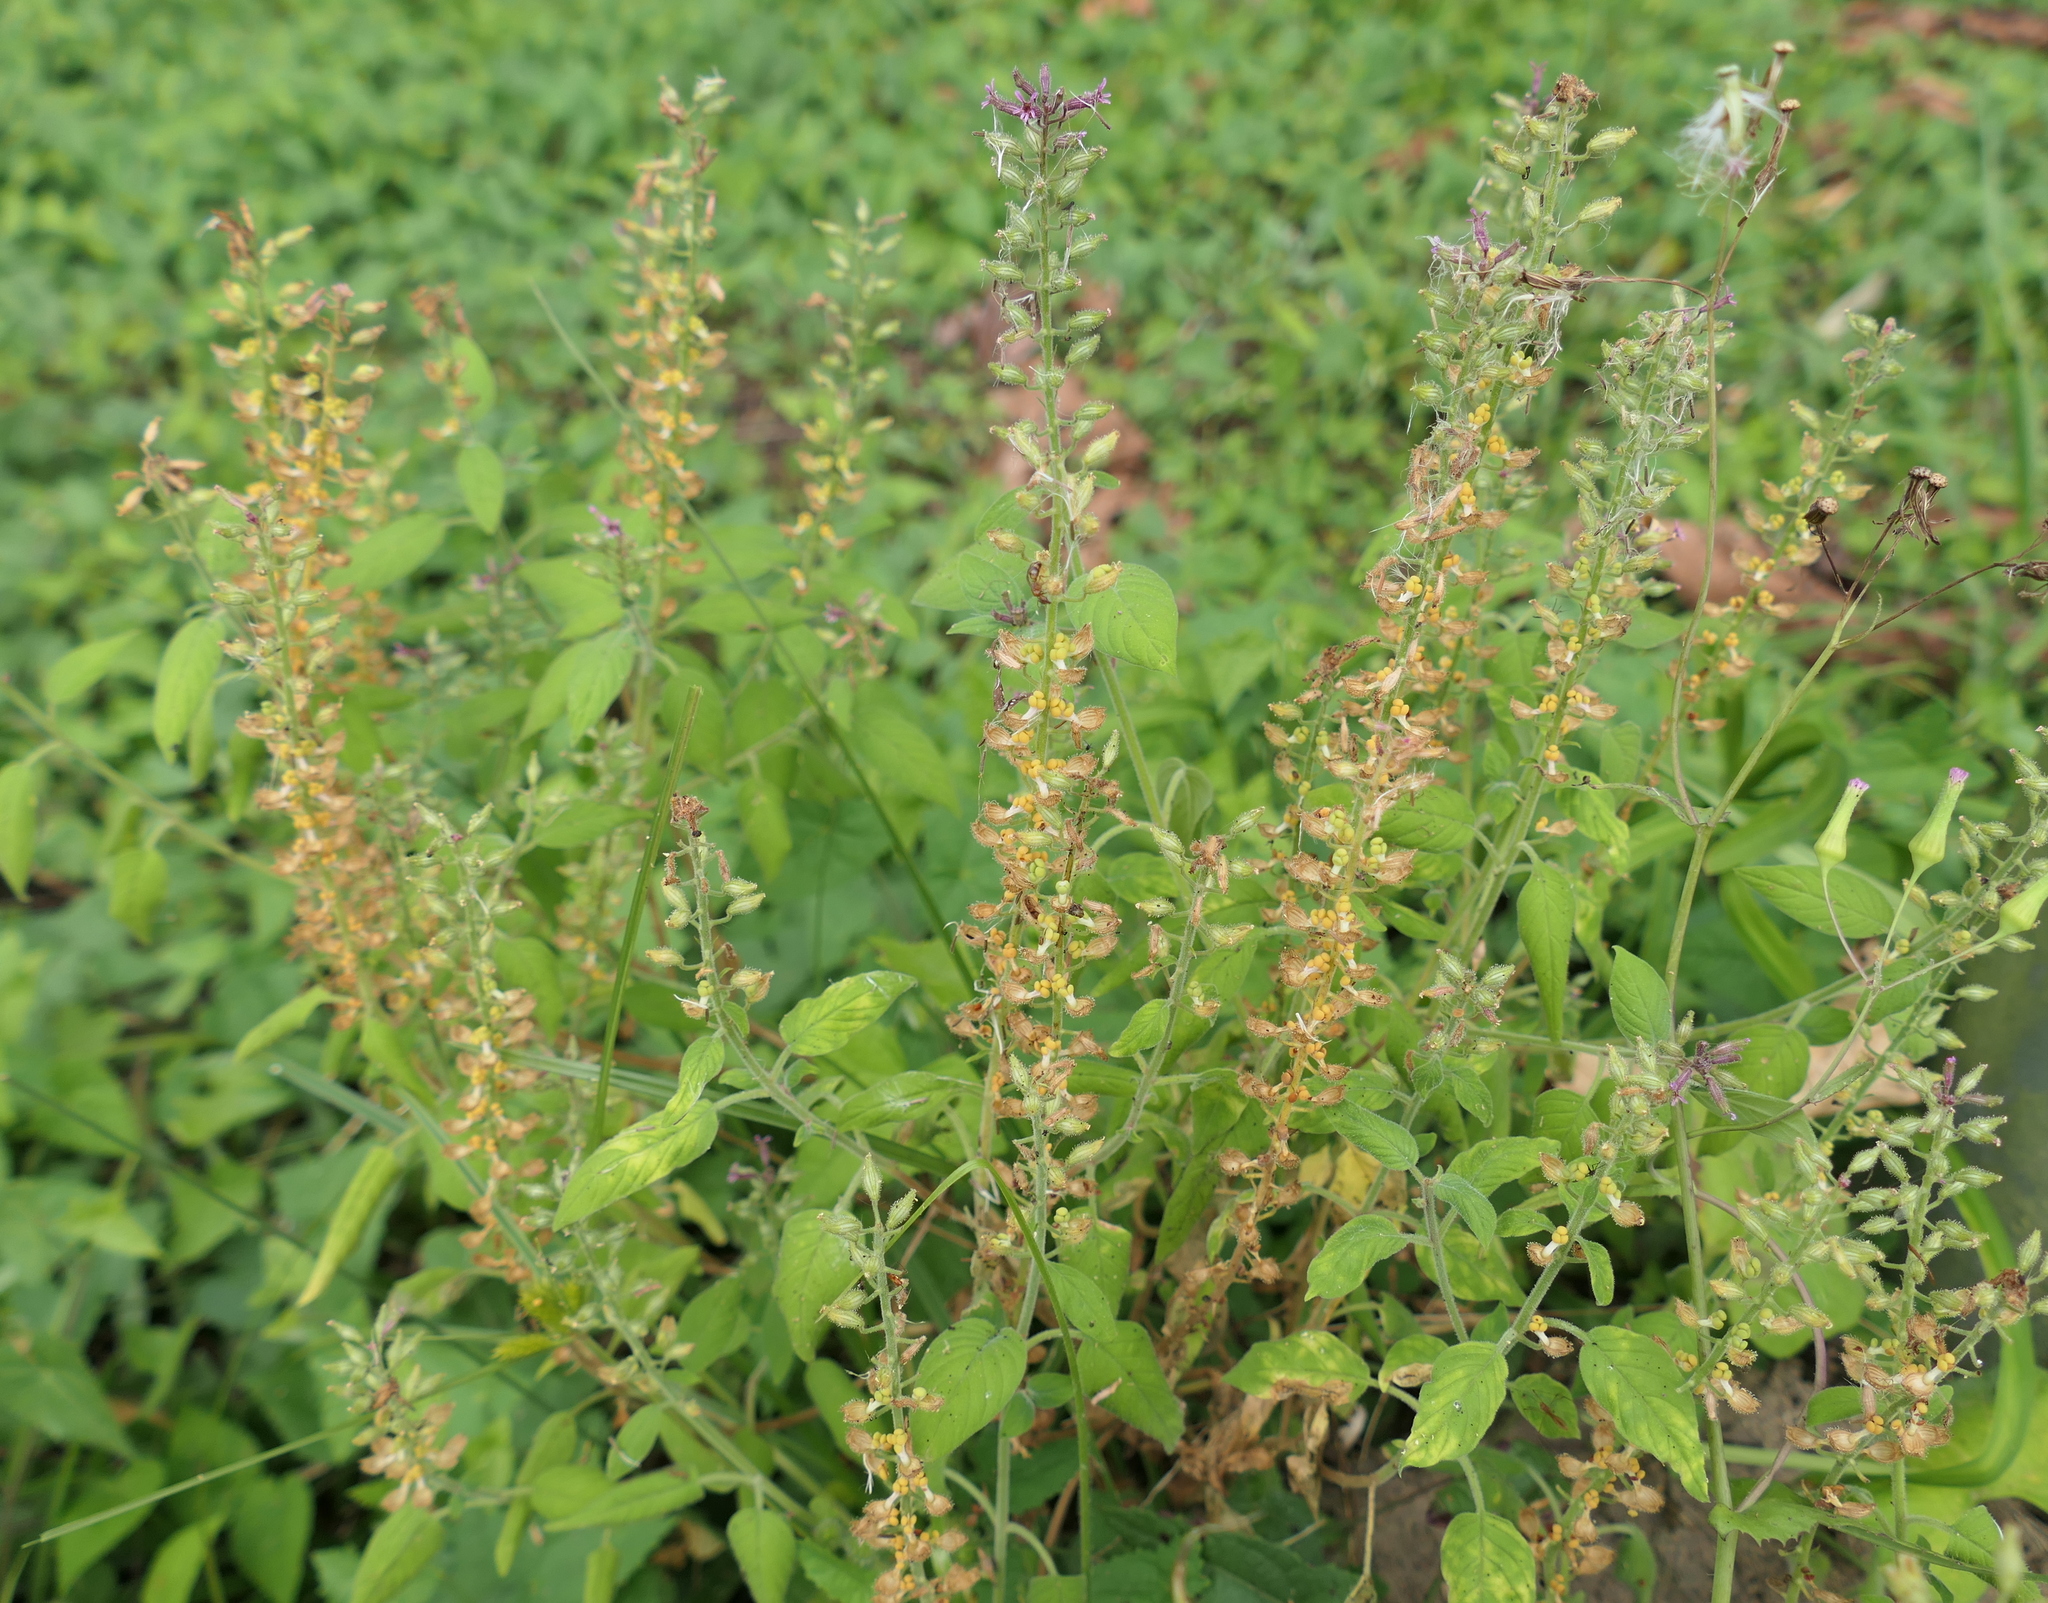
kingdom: Plantae
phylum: Tracheophyta
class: Magnoliopsida
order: Myrtales
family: Lythraceae
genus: Cuphea
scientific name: Cuphea circaeoides
